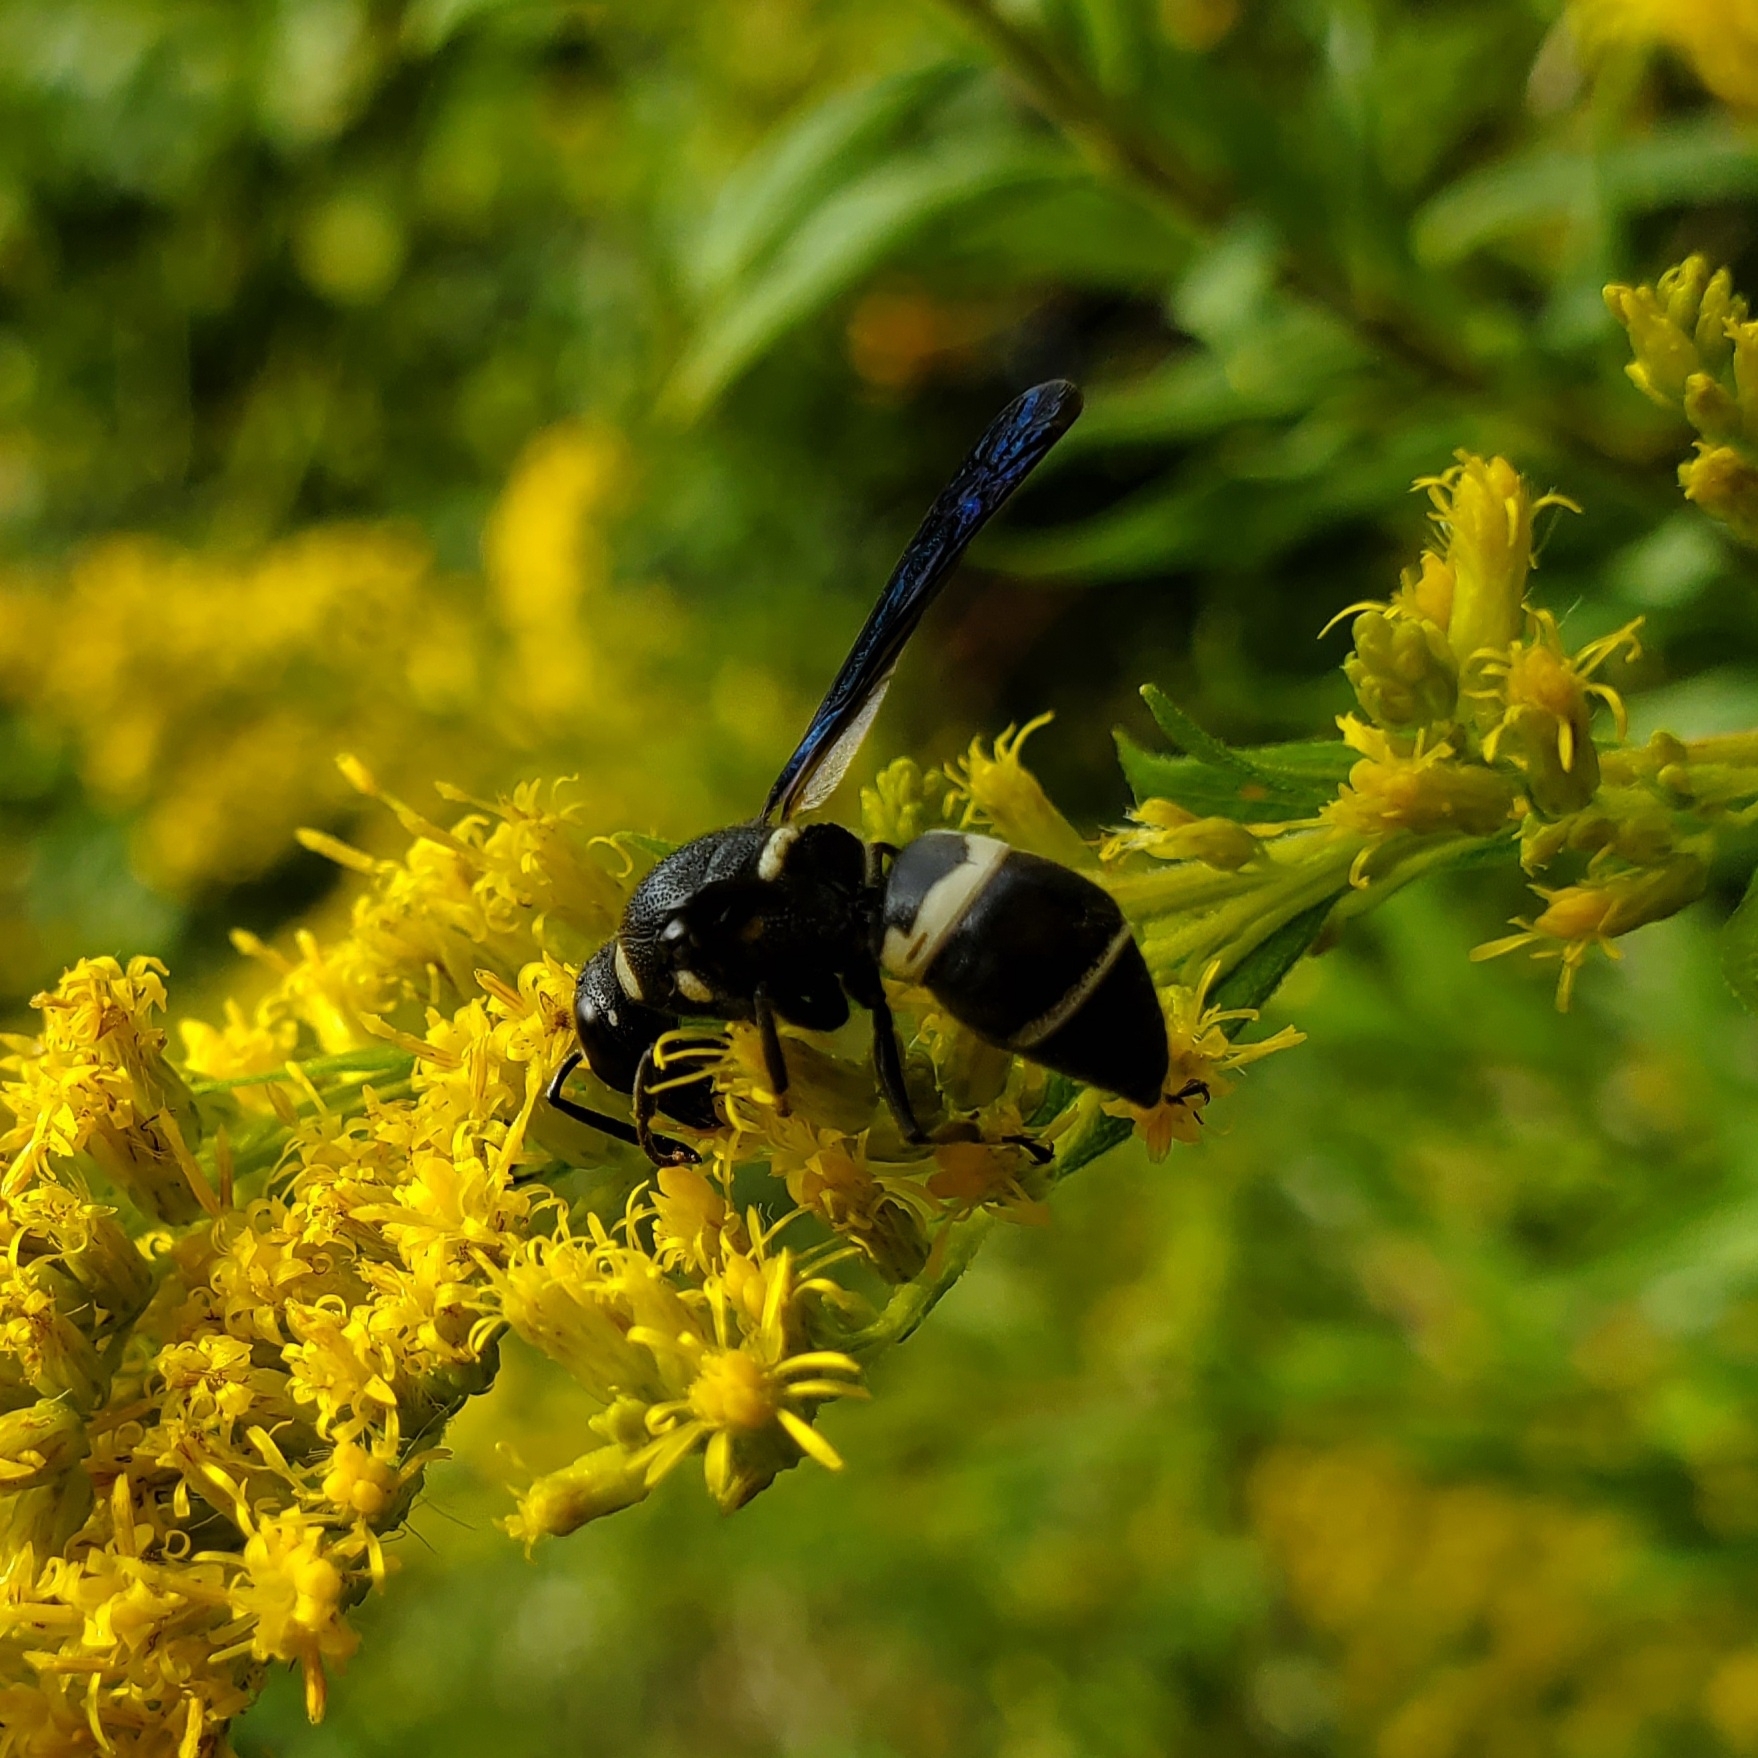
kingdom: Animalia
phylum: Arthropoda
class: Insecta
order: Hymenoptera
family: Eumenidae
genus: Euodynerus
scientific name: Euodynerus megaera
